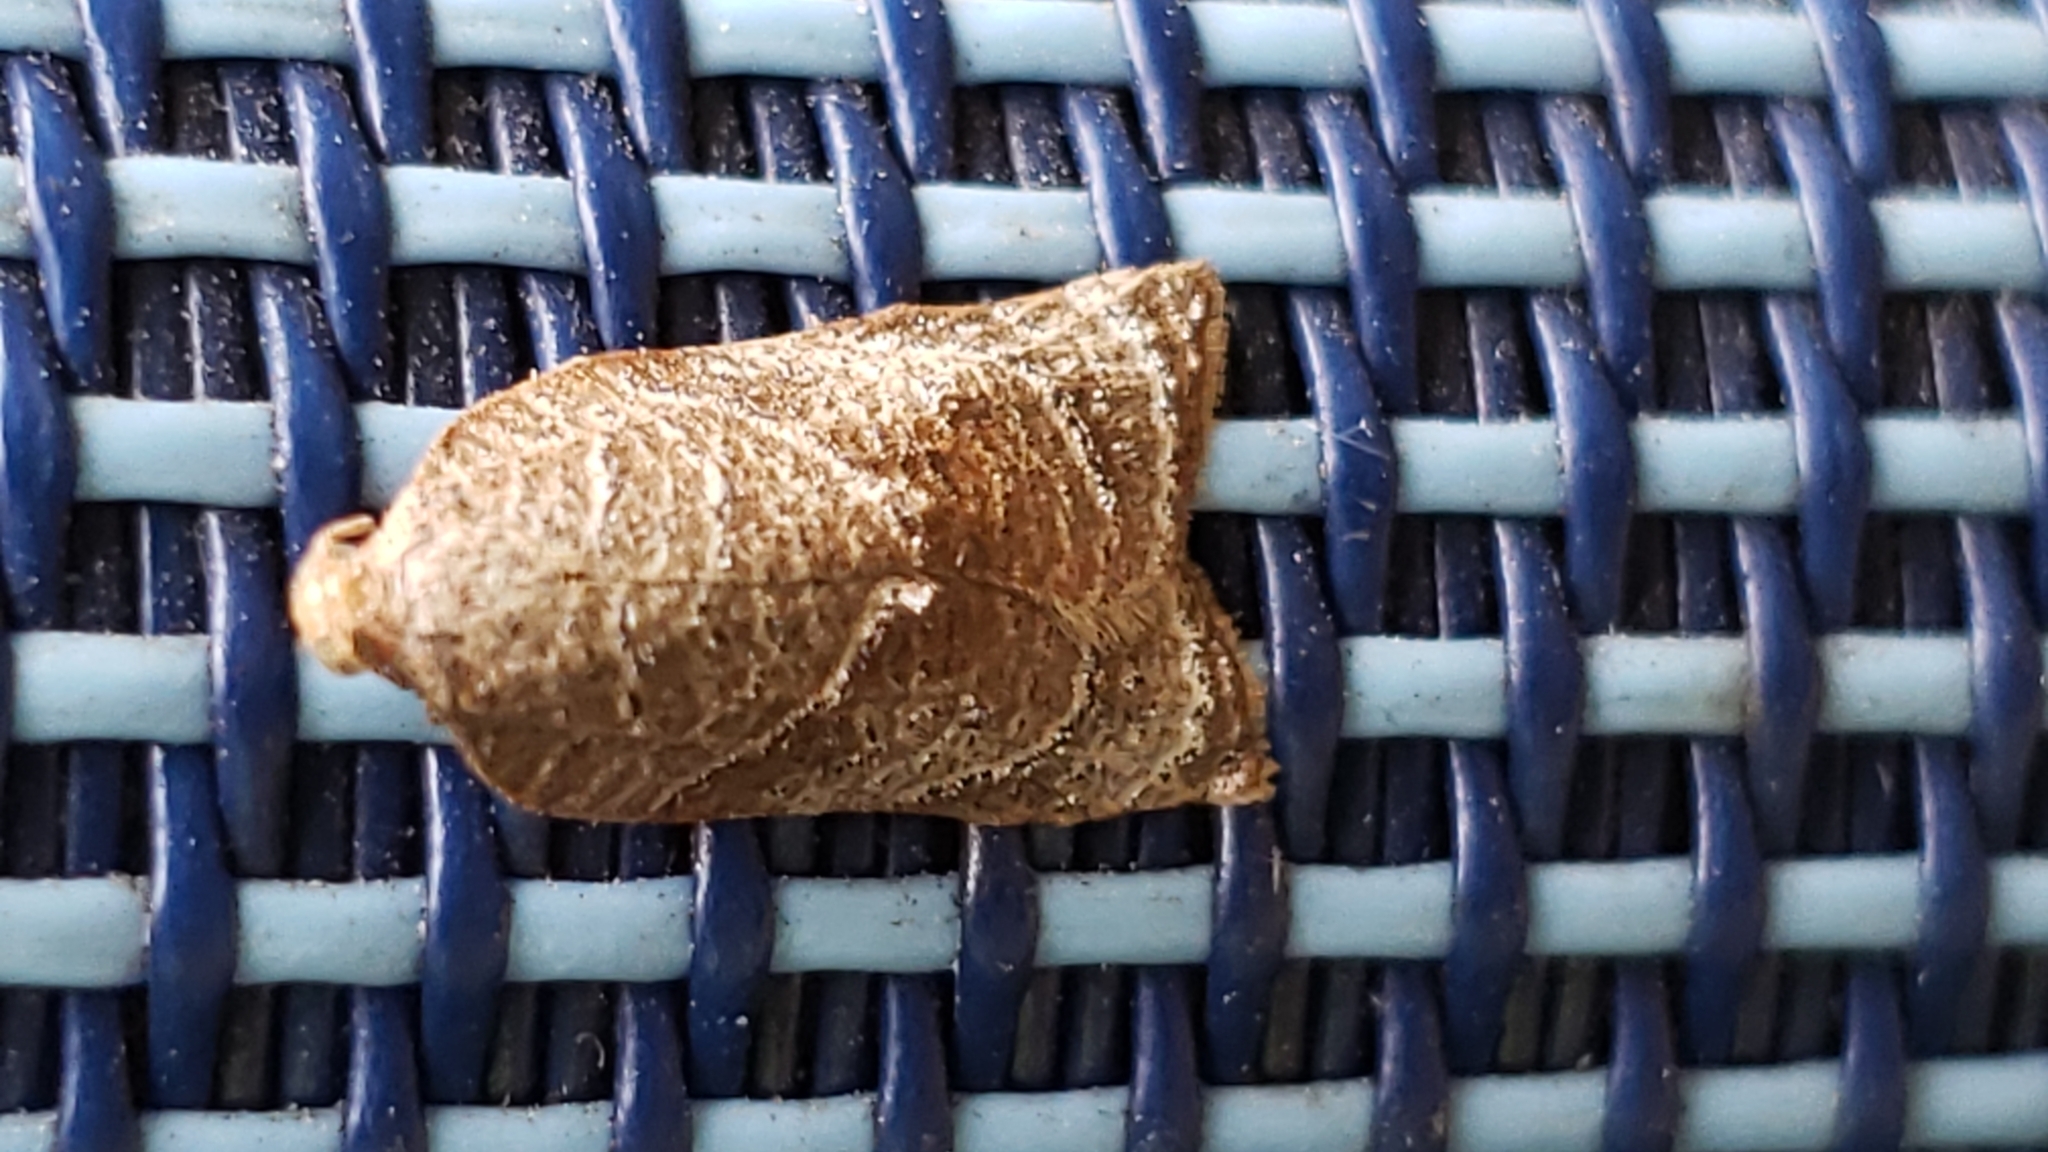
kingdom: Animalia
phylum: Arthropoda
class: Insecta
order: Lepidoptera
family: Tortricidae
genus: Platynota
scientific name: Platynota rostrana
